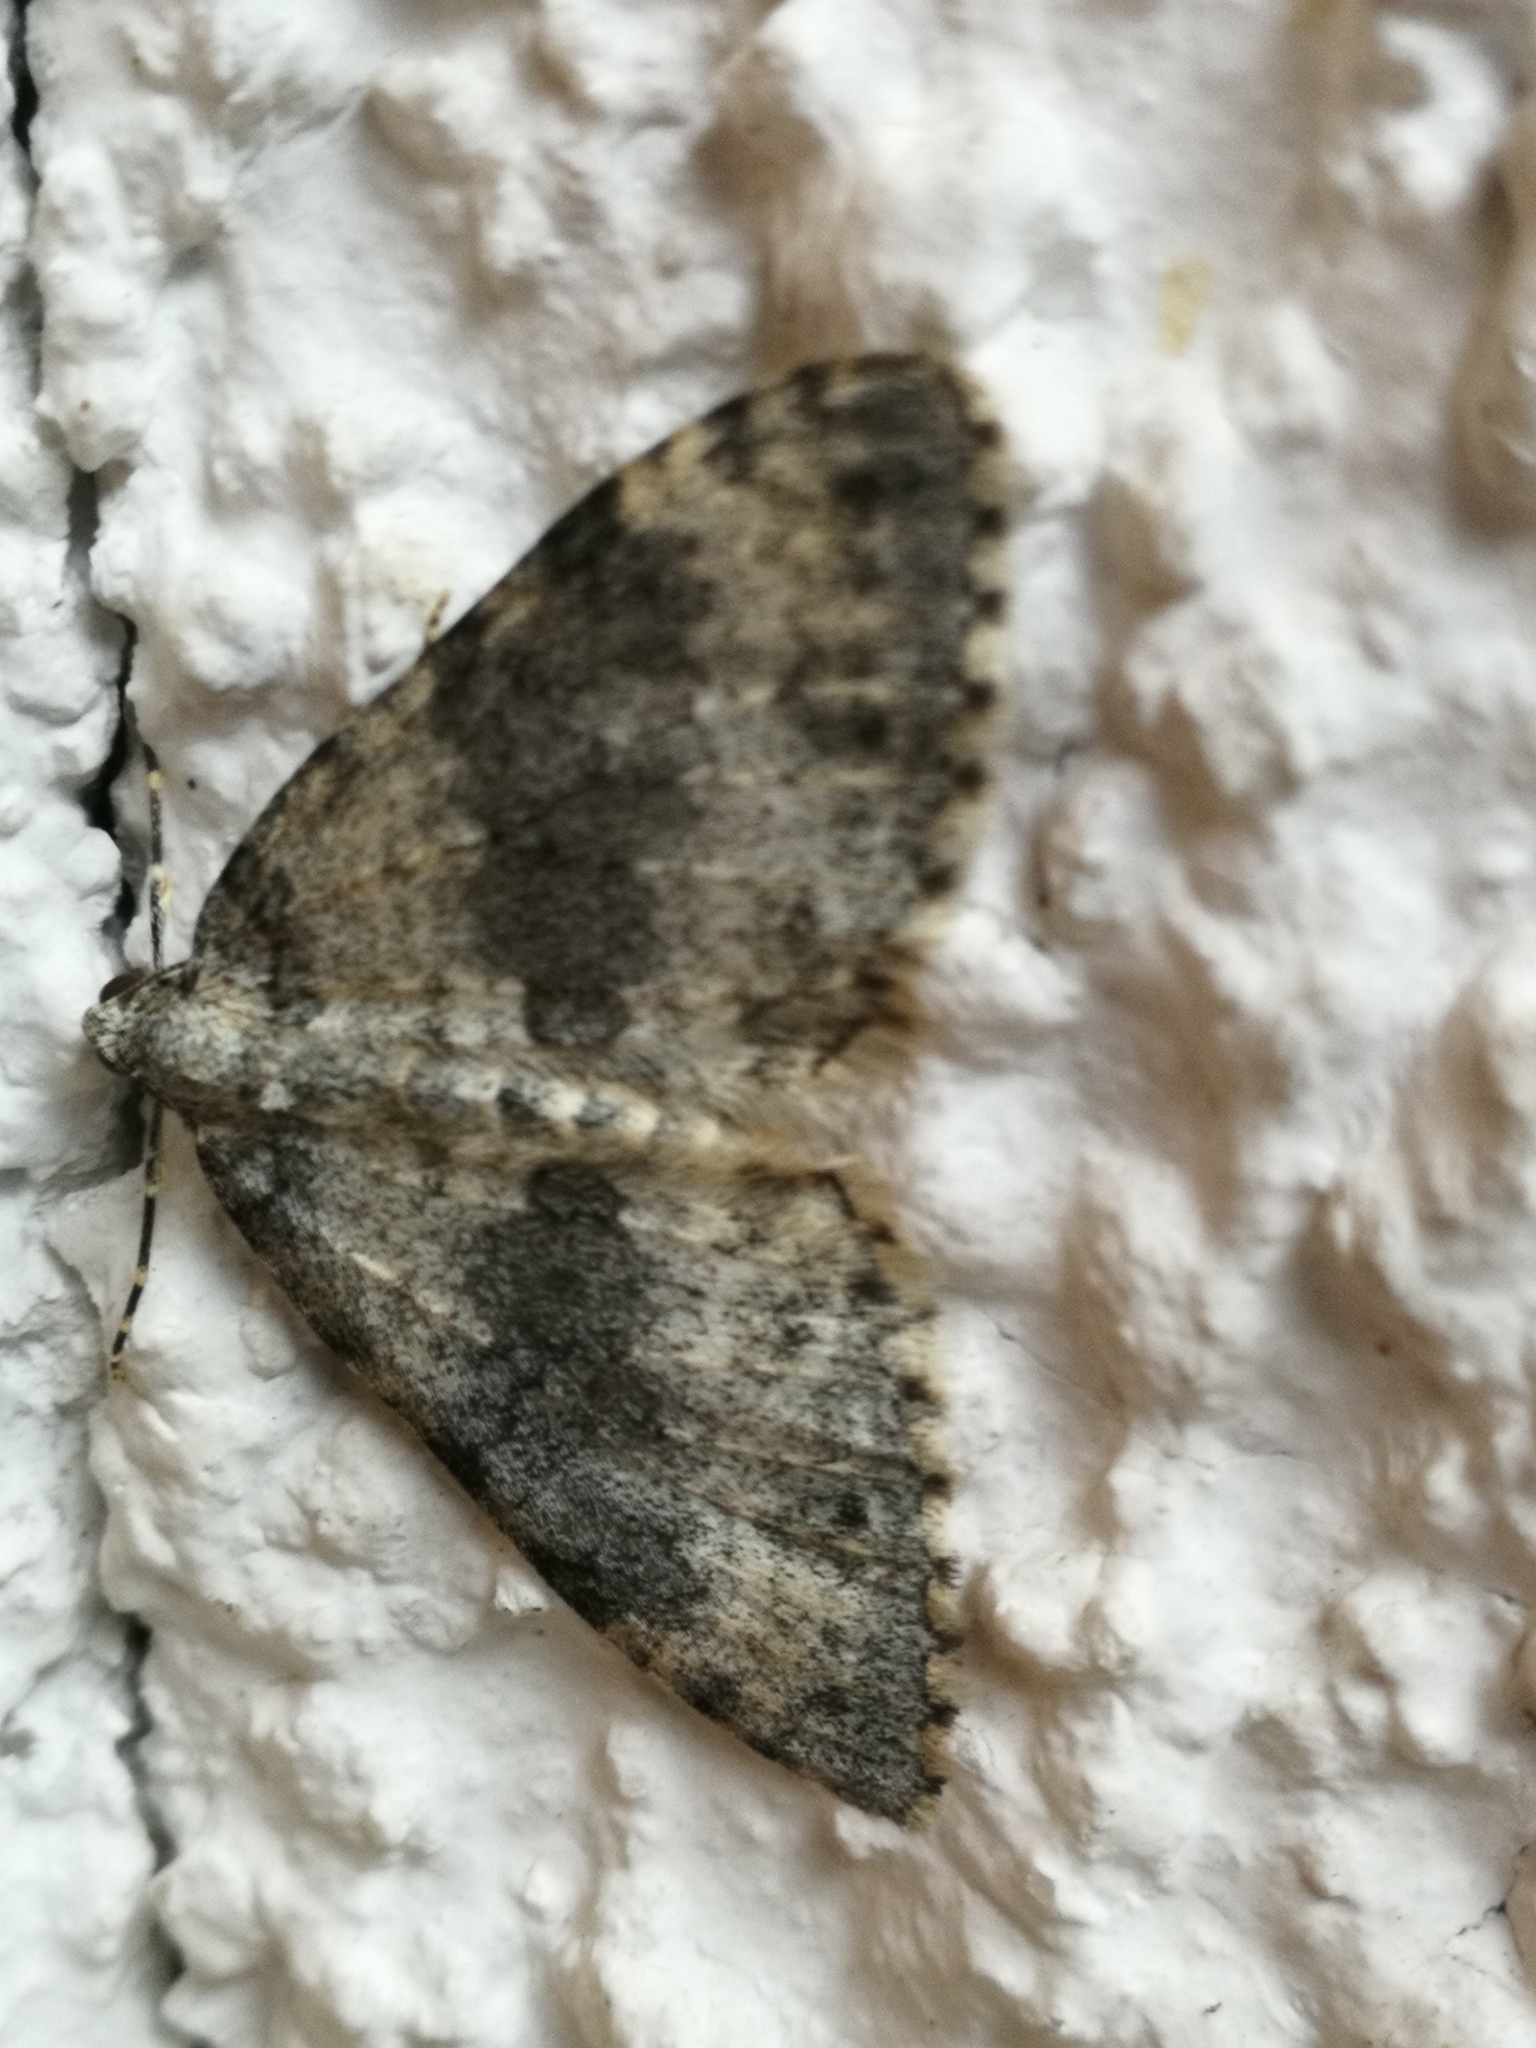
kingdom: Animalia
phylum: Arthropoda
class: Insecta
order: Lepidoptera
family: Geometridae
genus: Entephria
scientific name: Entephria cyanata
